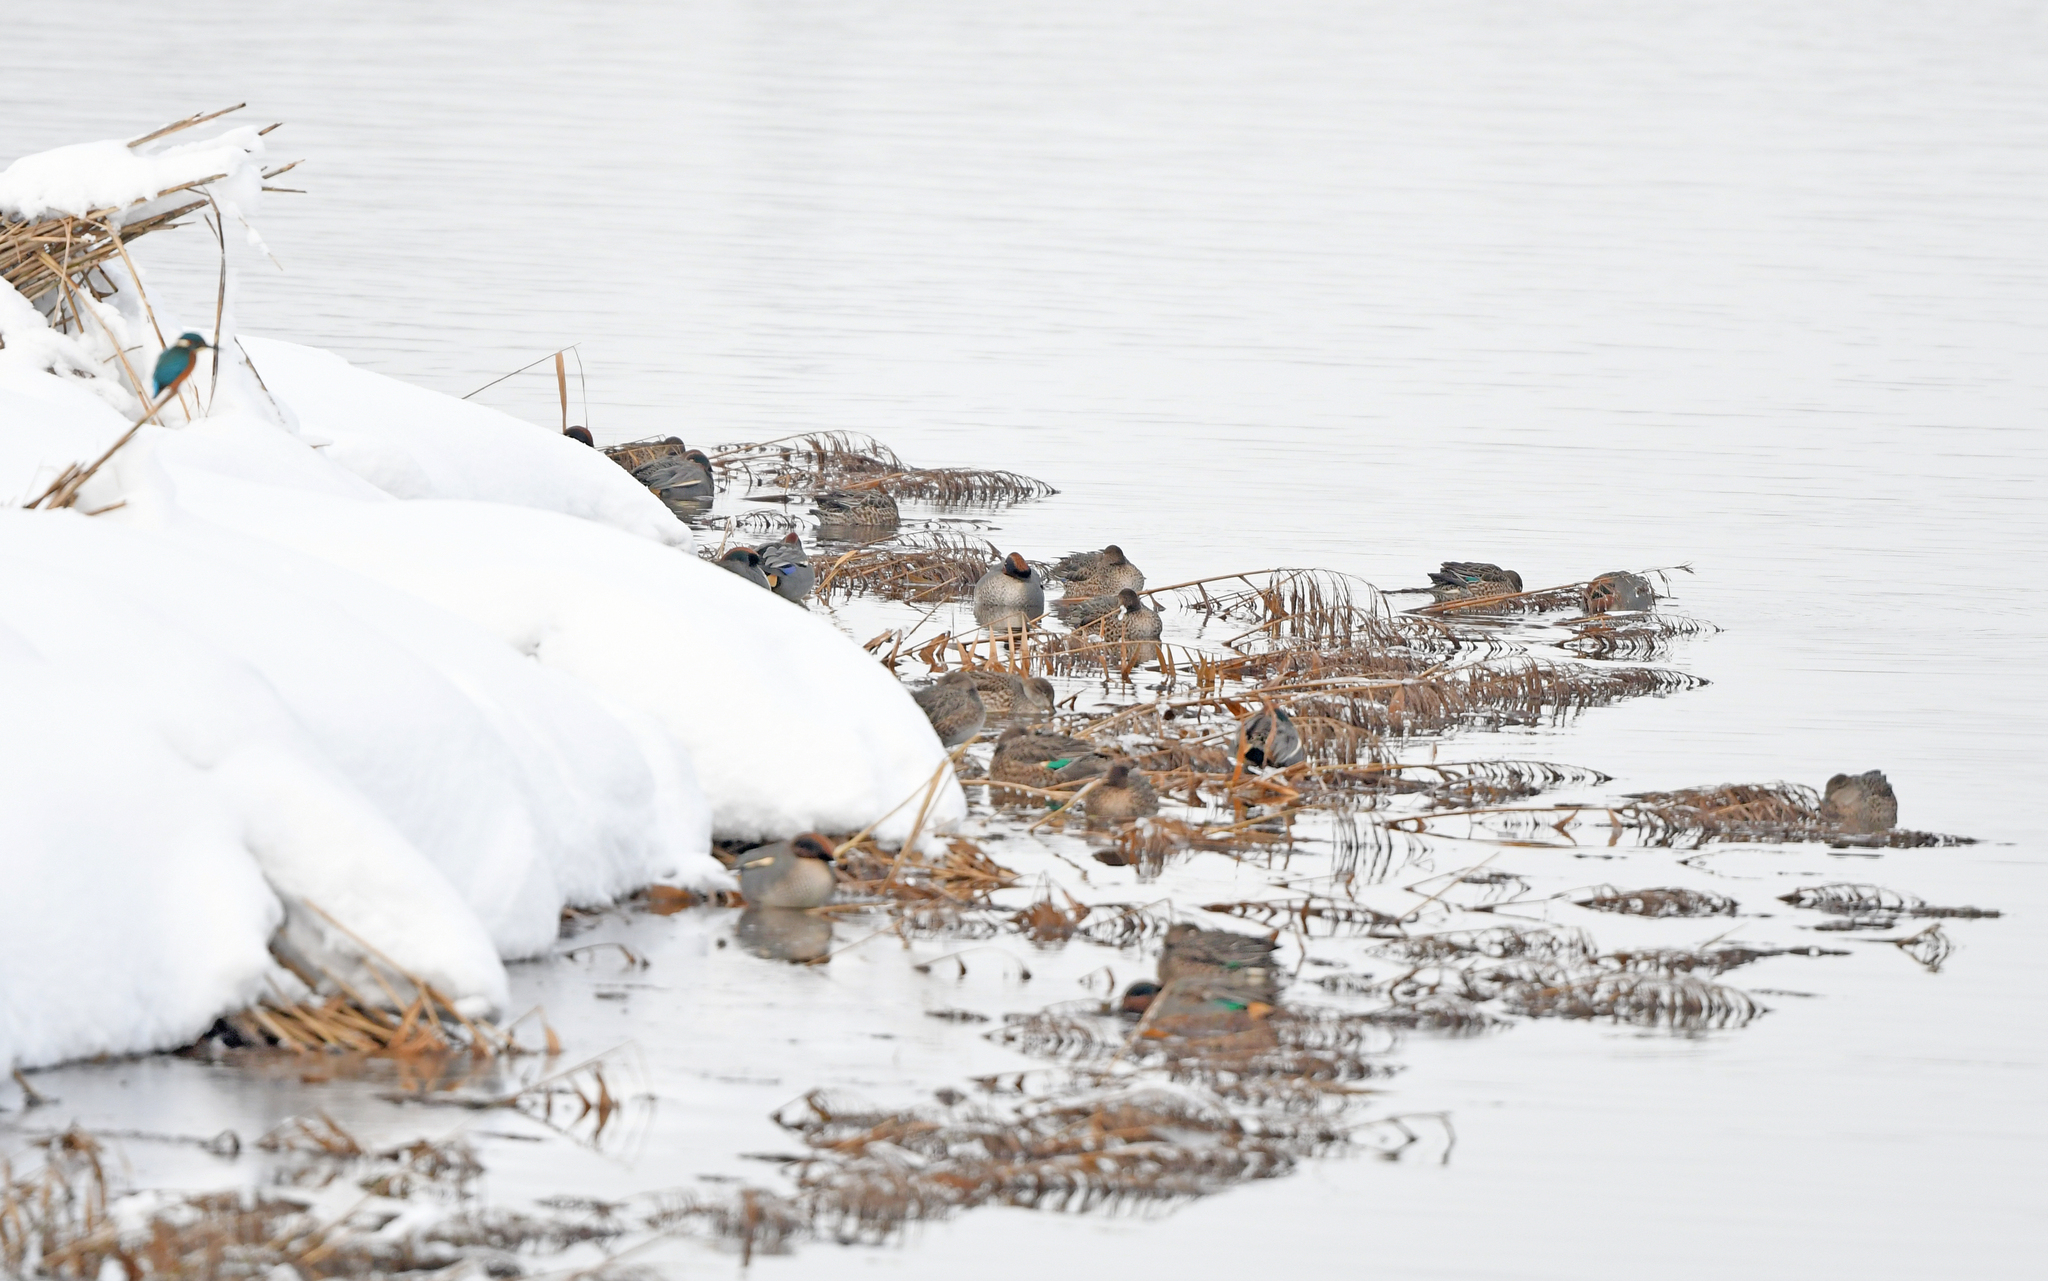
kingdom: Animalia
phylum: Chordata
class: Aves
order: Anseriformes
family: Anatidae
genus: Anas
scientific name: Anas crecca
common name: Eurasian teal
